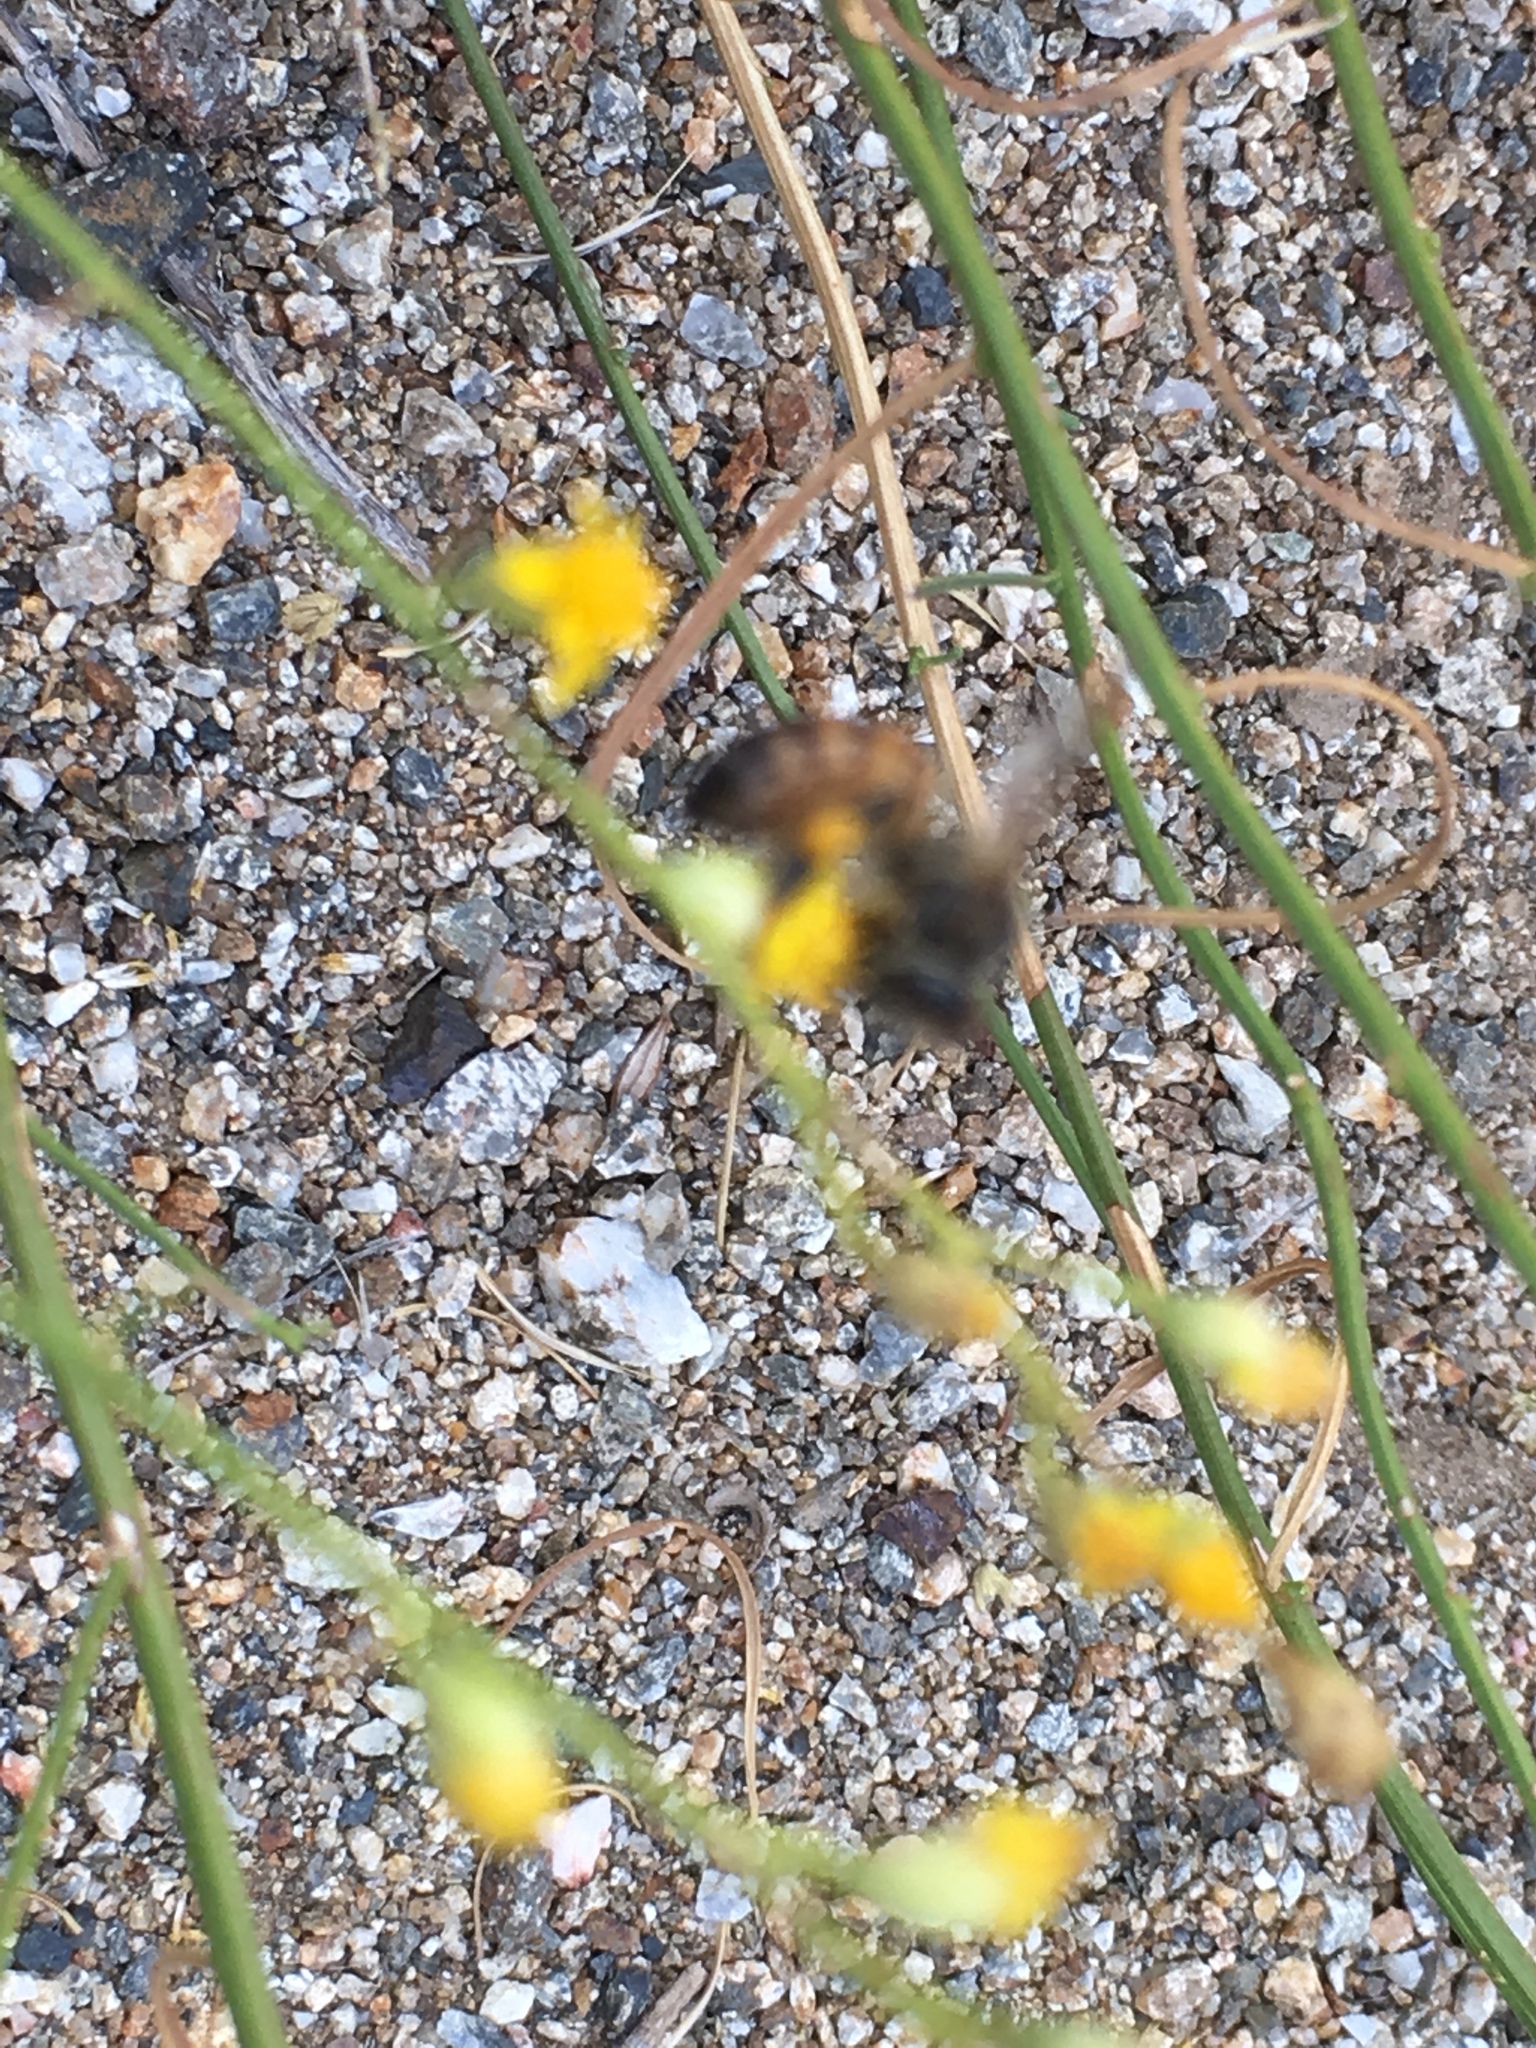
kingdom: Animalia
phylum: Arthropoda
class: Insecta
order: Hymenoptera
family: Apidae
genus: Apis
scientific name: Apis mellifera
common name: Honey bee
